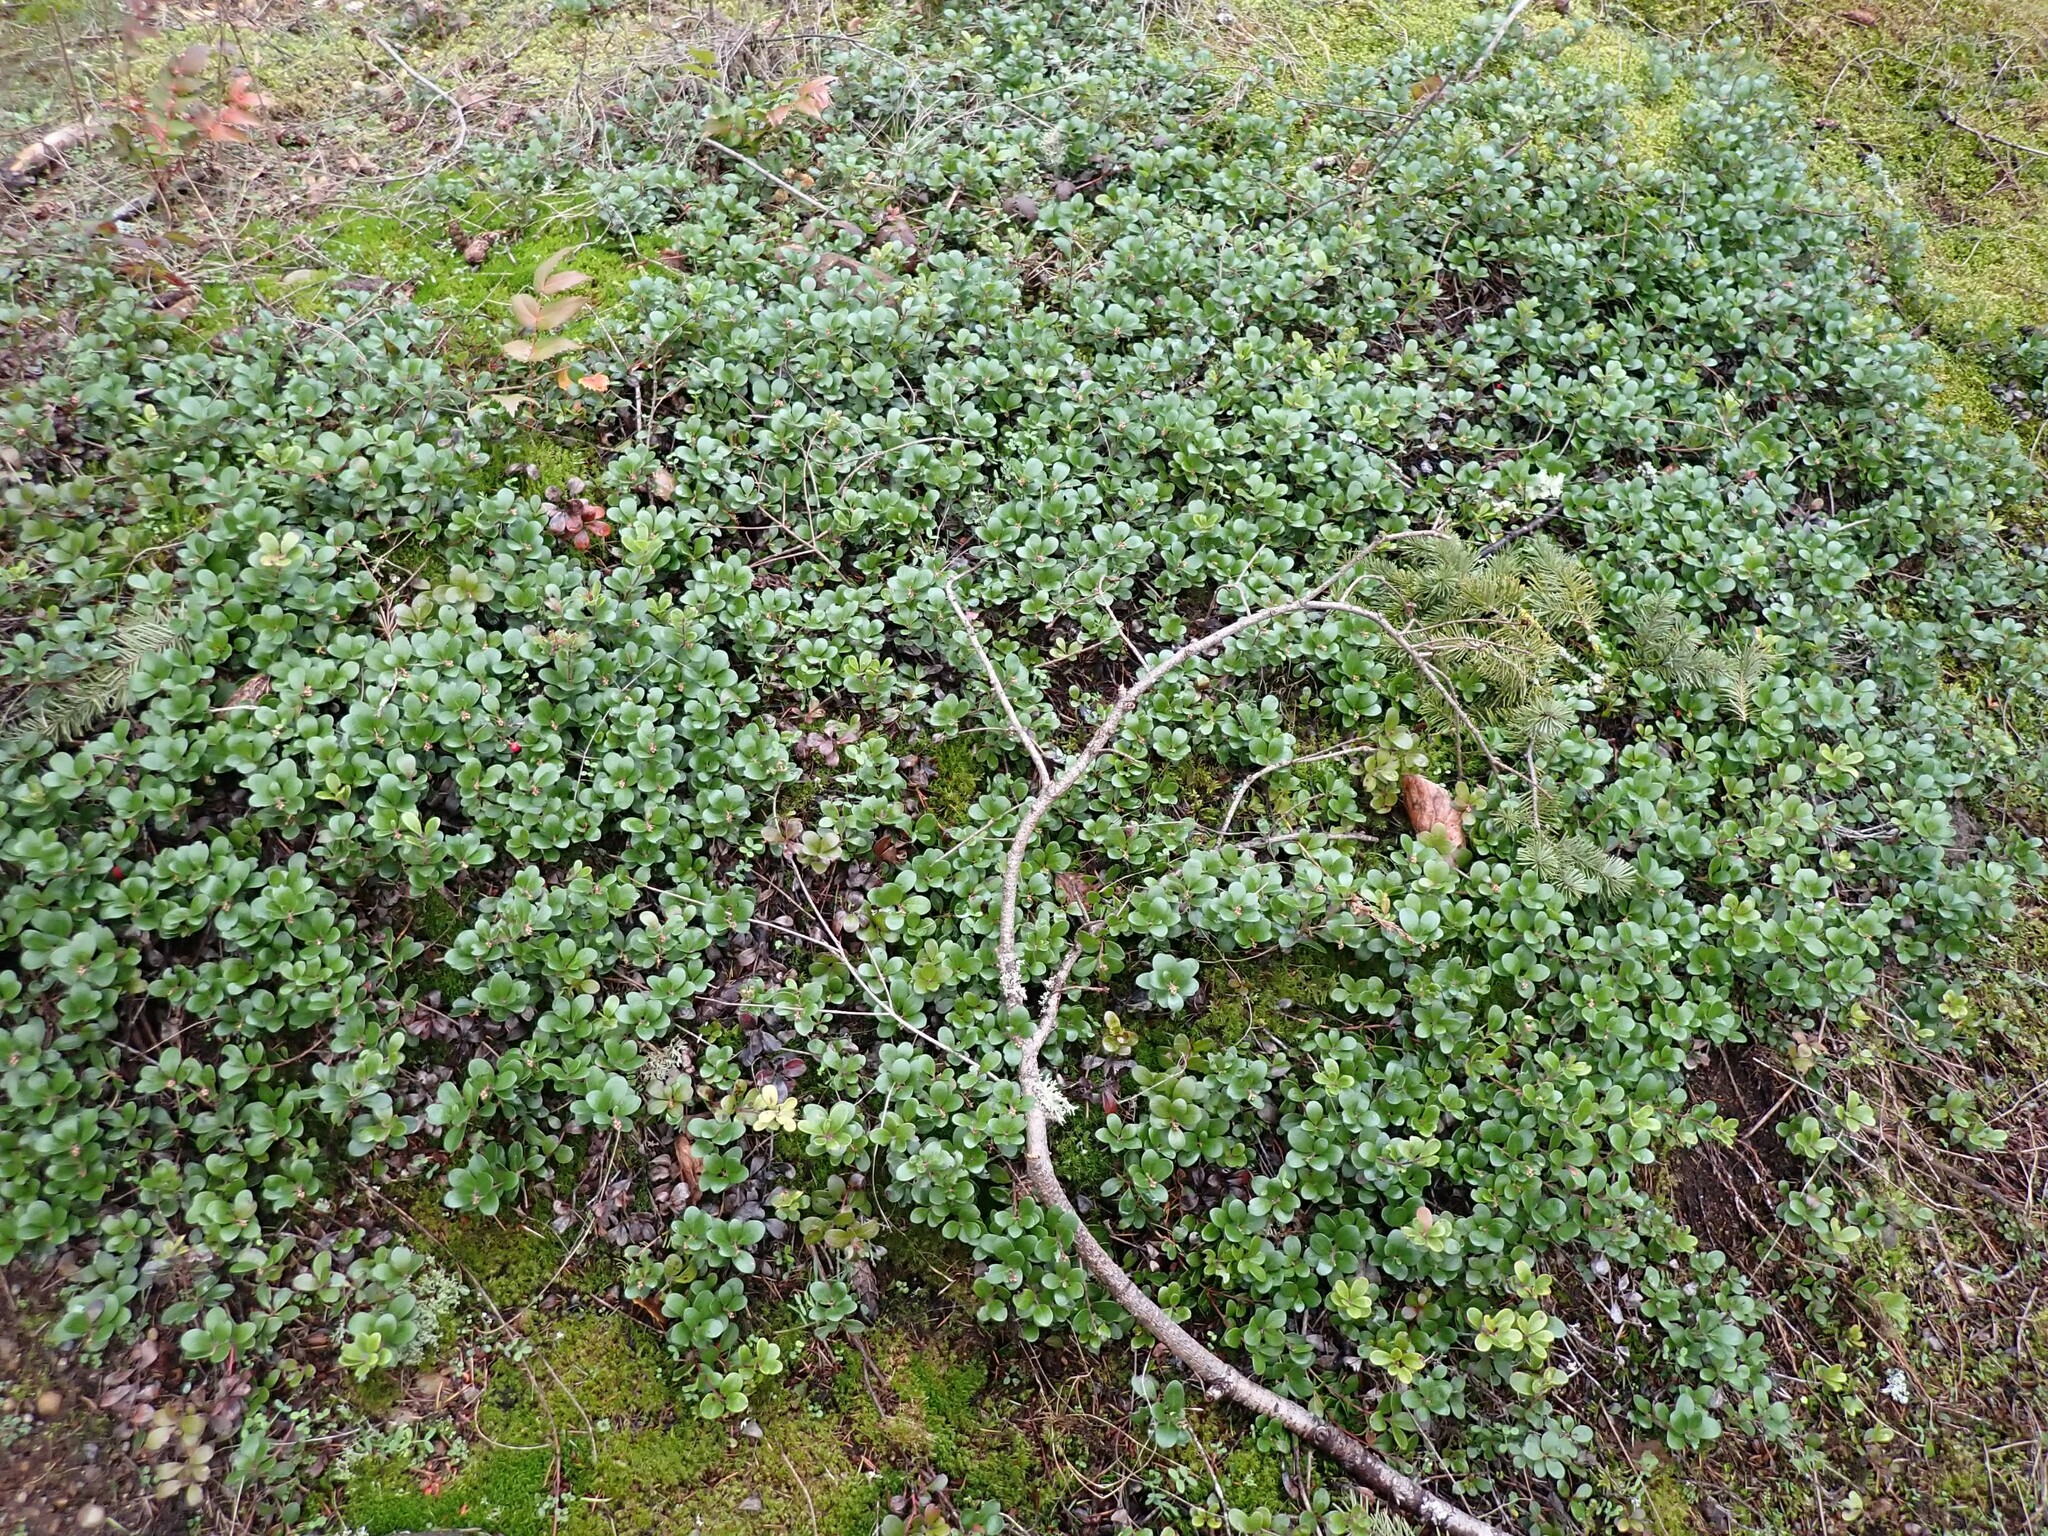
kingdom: Plantae
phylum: Tracheophyta
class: Magnoliopsida
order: Ericales
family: Ericaceae
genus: Arctostaphylos
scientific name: Arctostaphylos uva-ursi
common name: Bearberry
